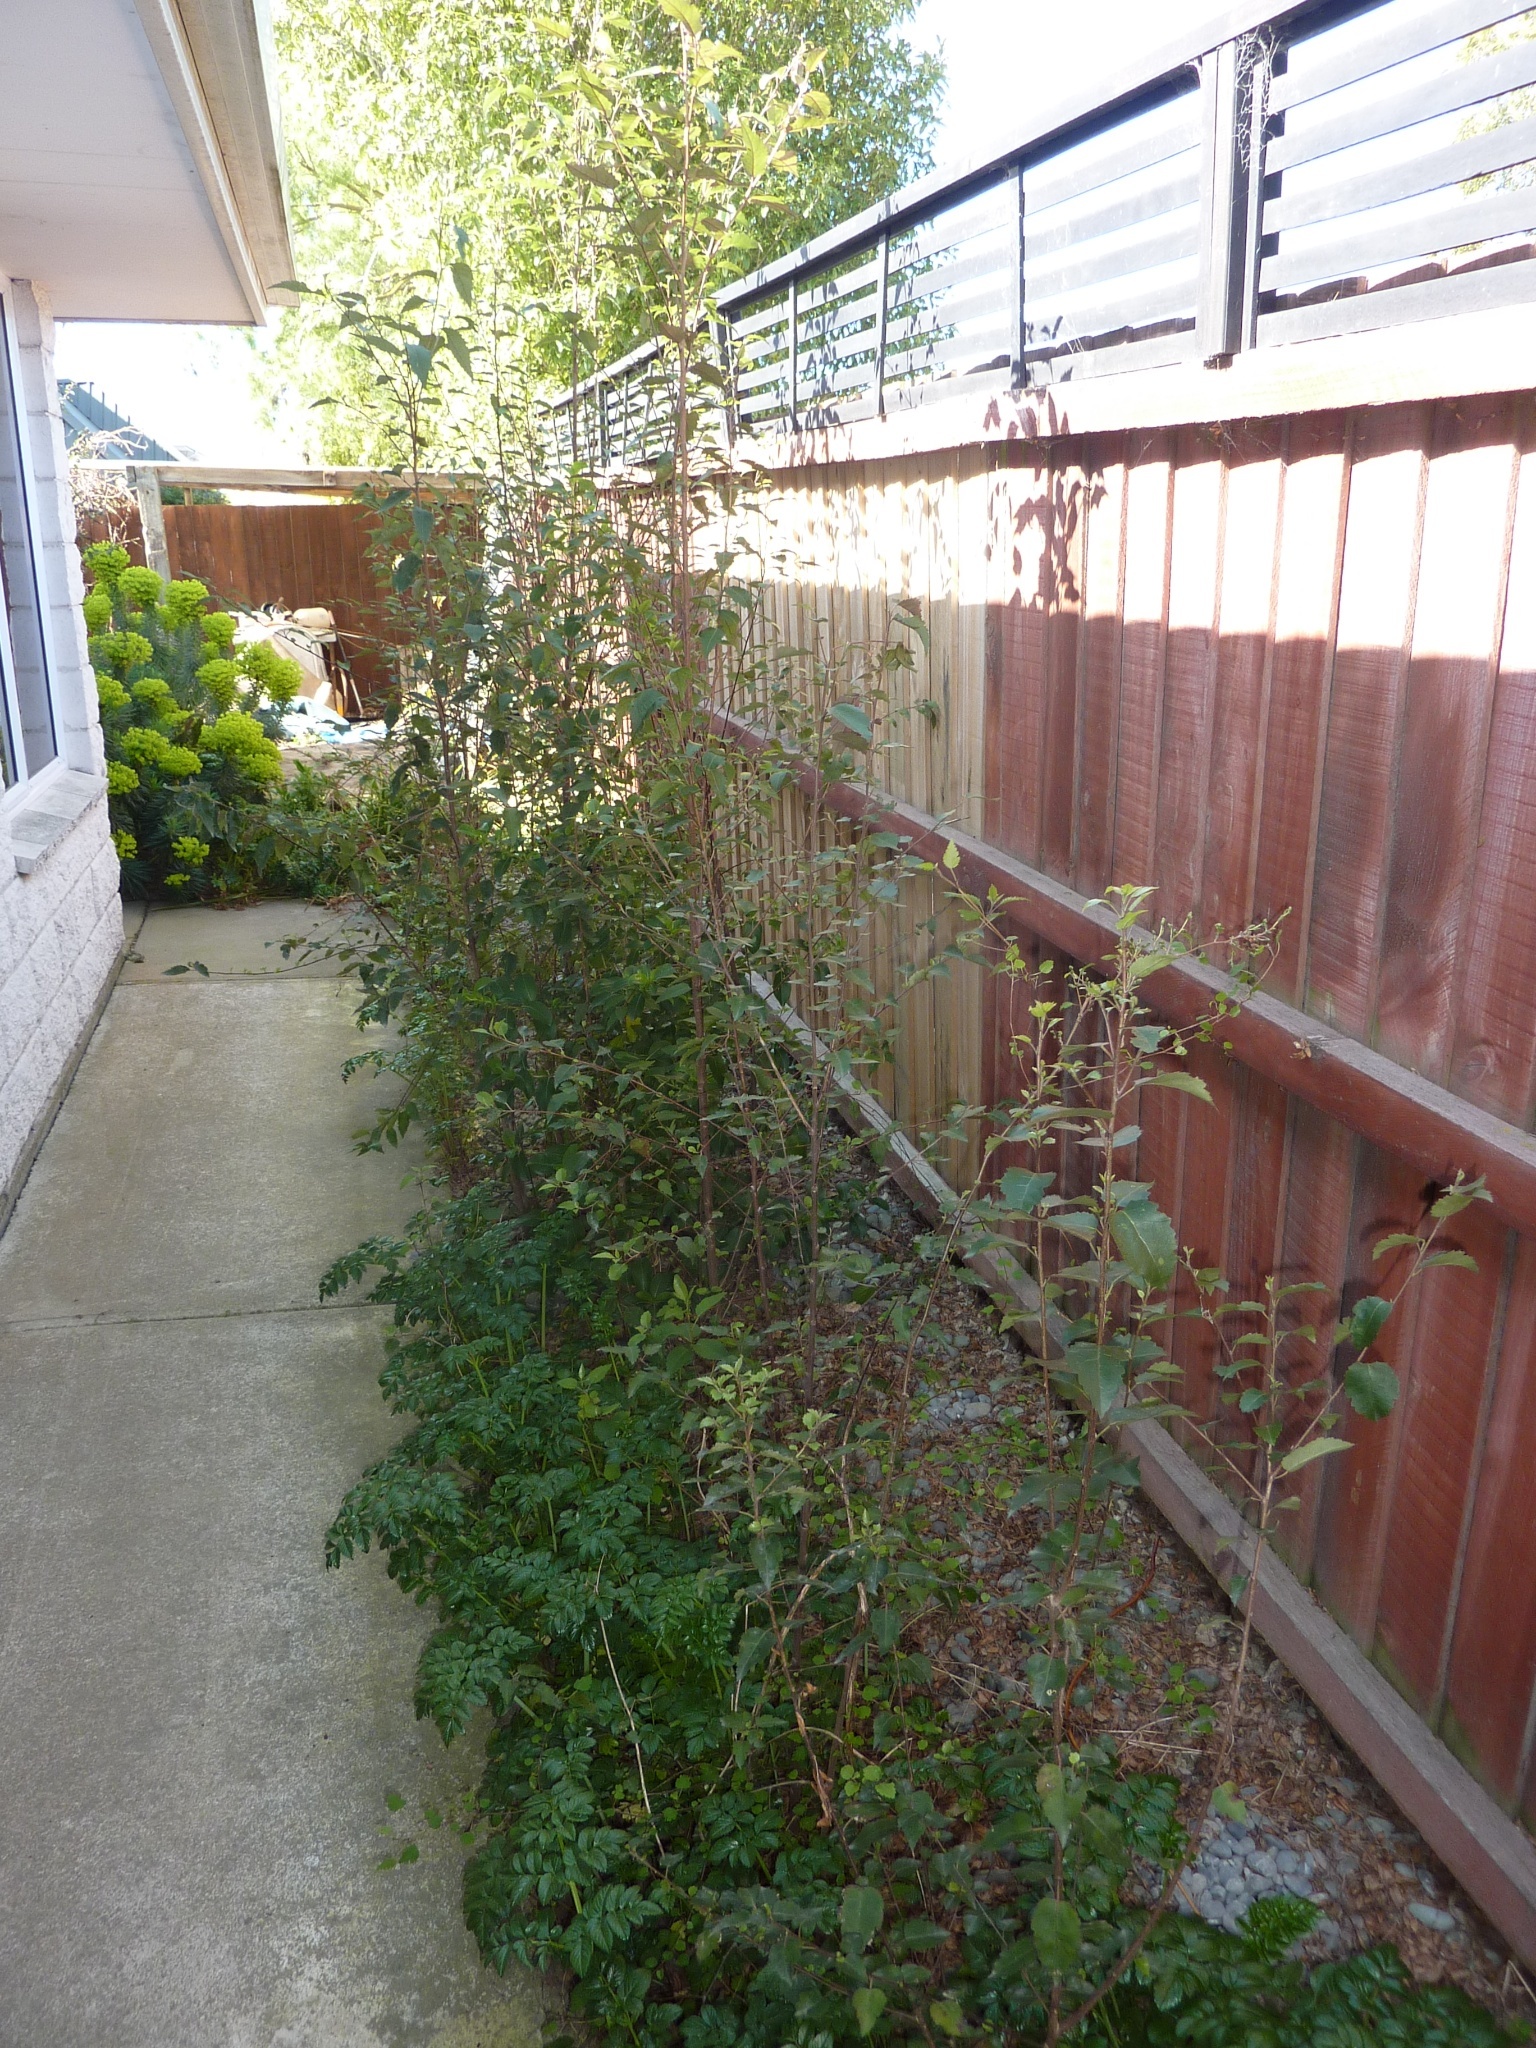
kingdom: Plantae
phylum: Tracheophyta
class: Magnoliopsida
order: Malvales
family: Malvaceae
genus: Hoheria
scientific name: Hoheria populnea
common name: Lacebark
